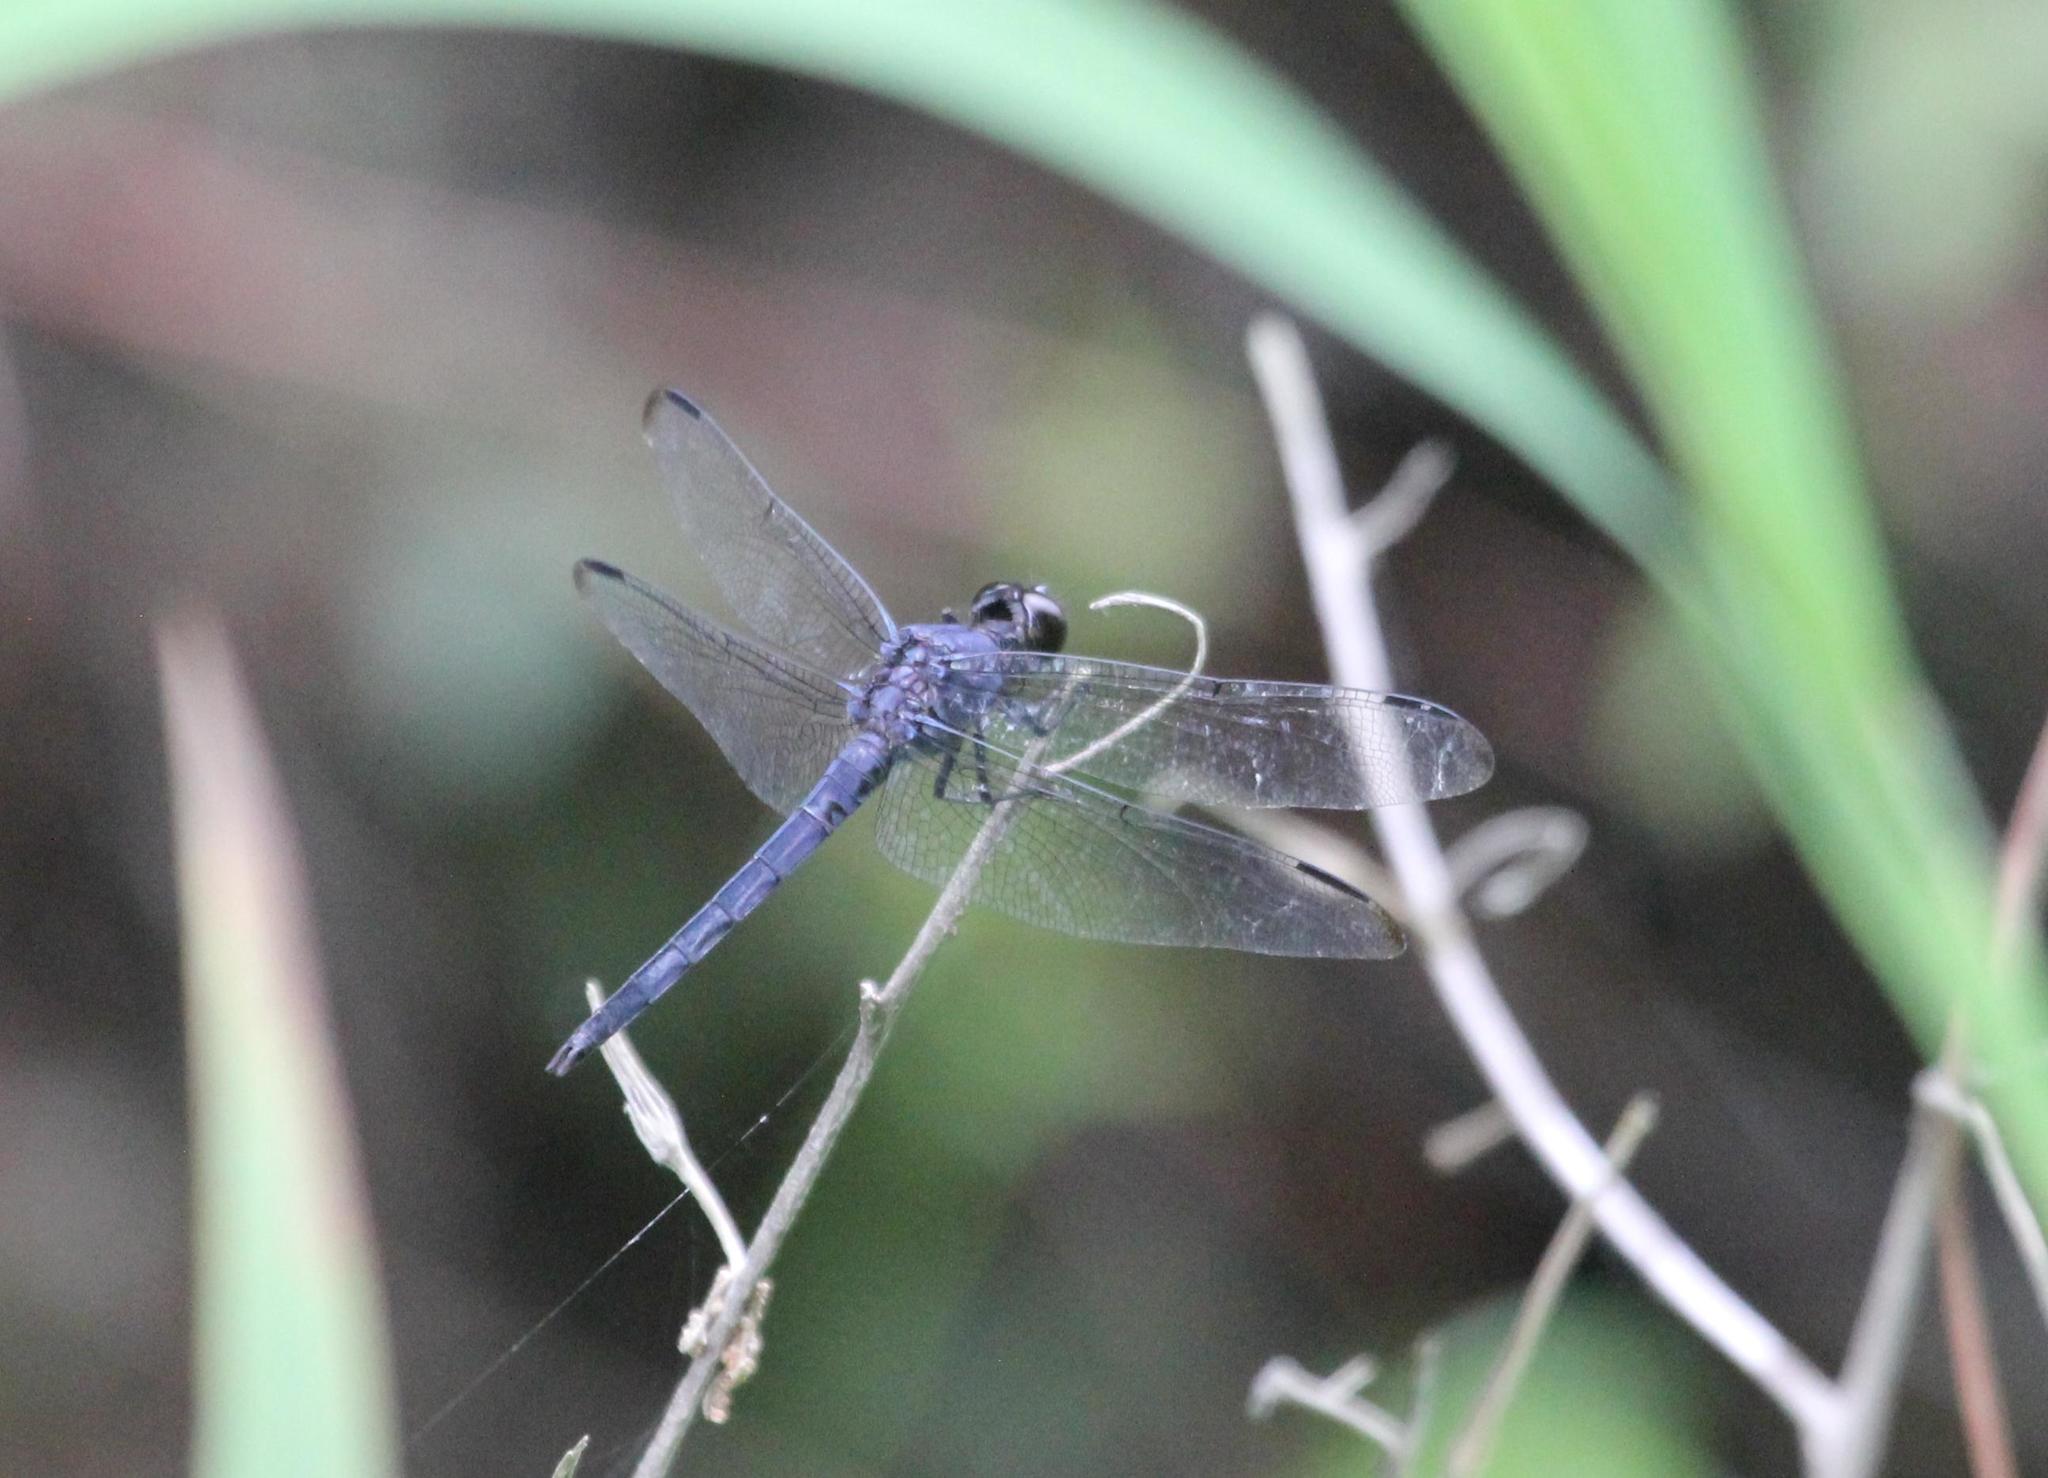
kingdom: Animalia
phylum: Arthropoda
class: Insecta
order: Odonata
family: Libellulidae
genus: Libellula
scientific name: Libellula incesta
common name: Slaty skimmer
